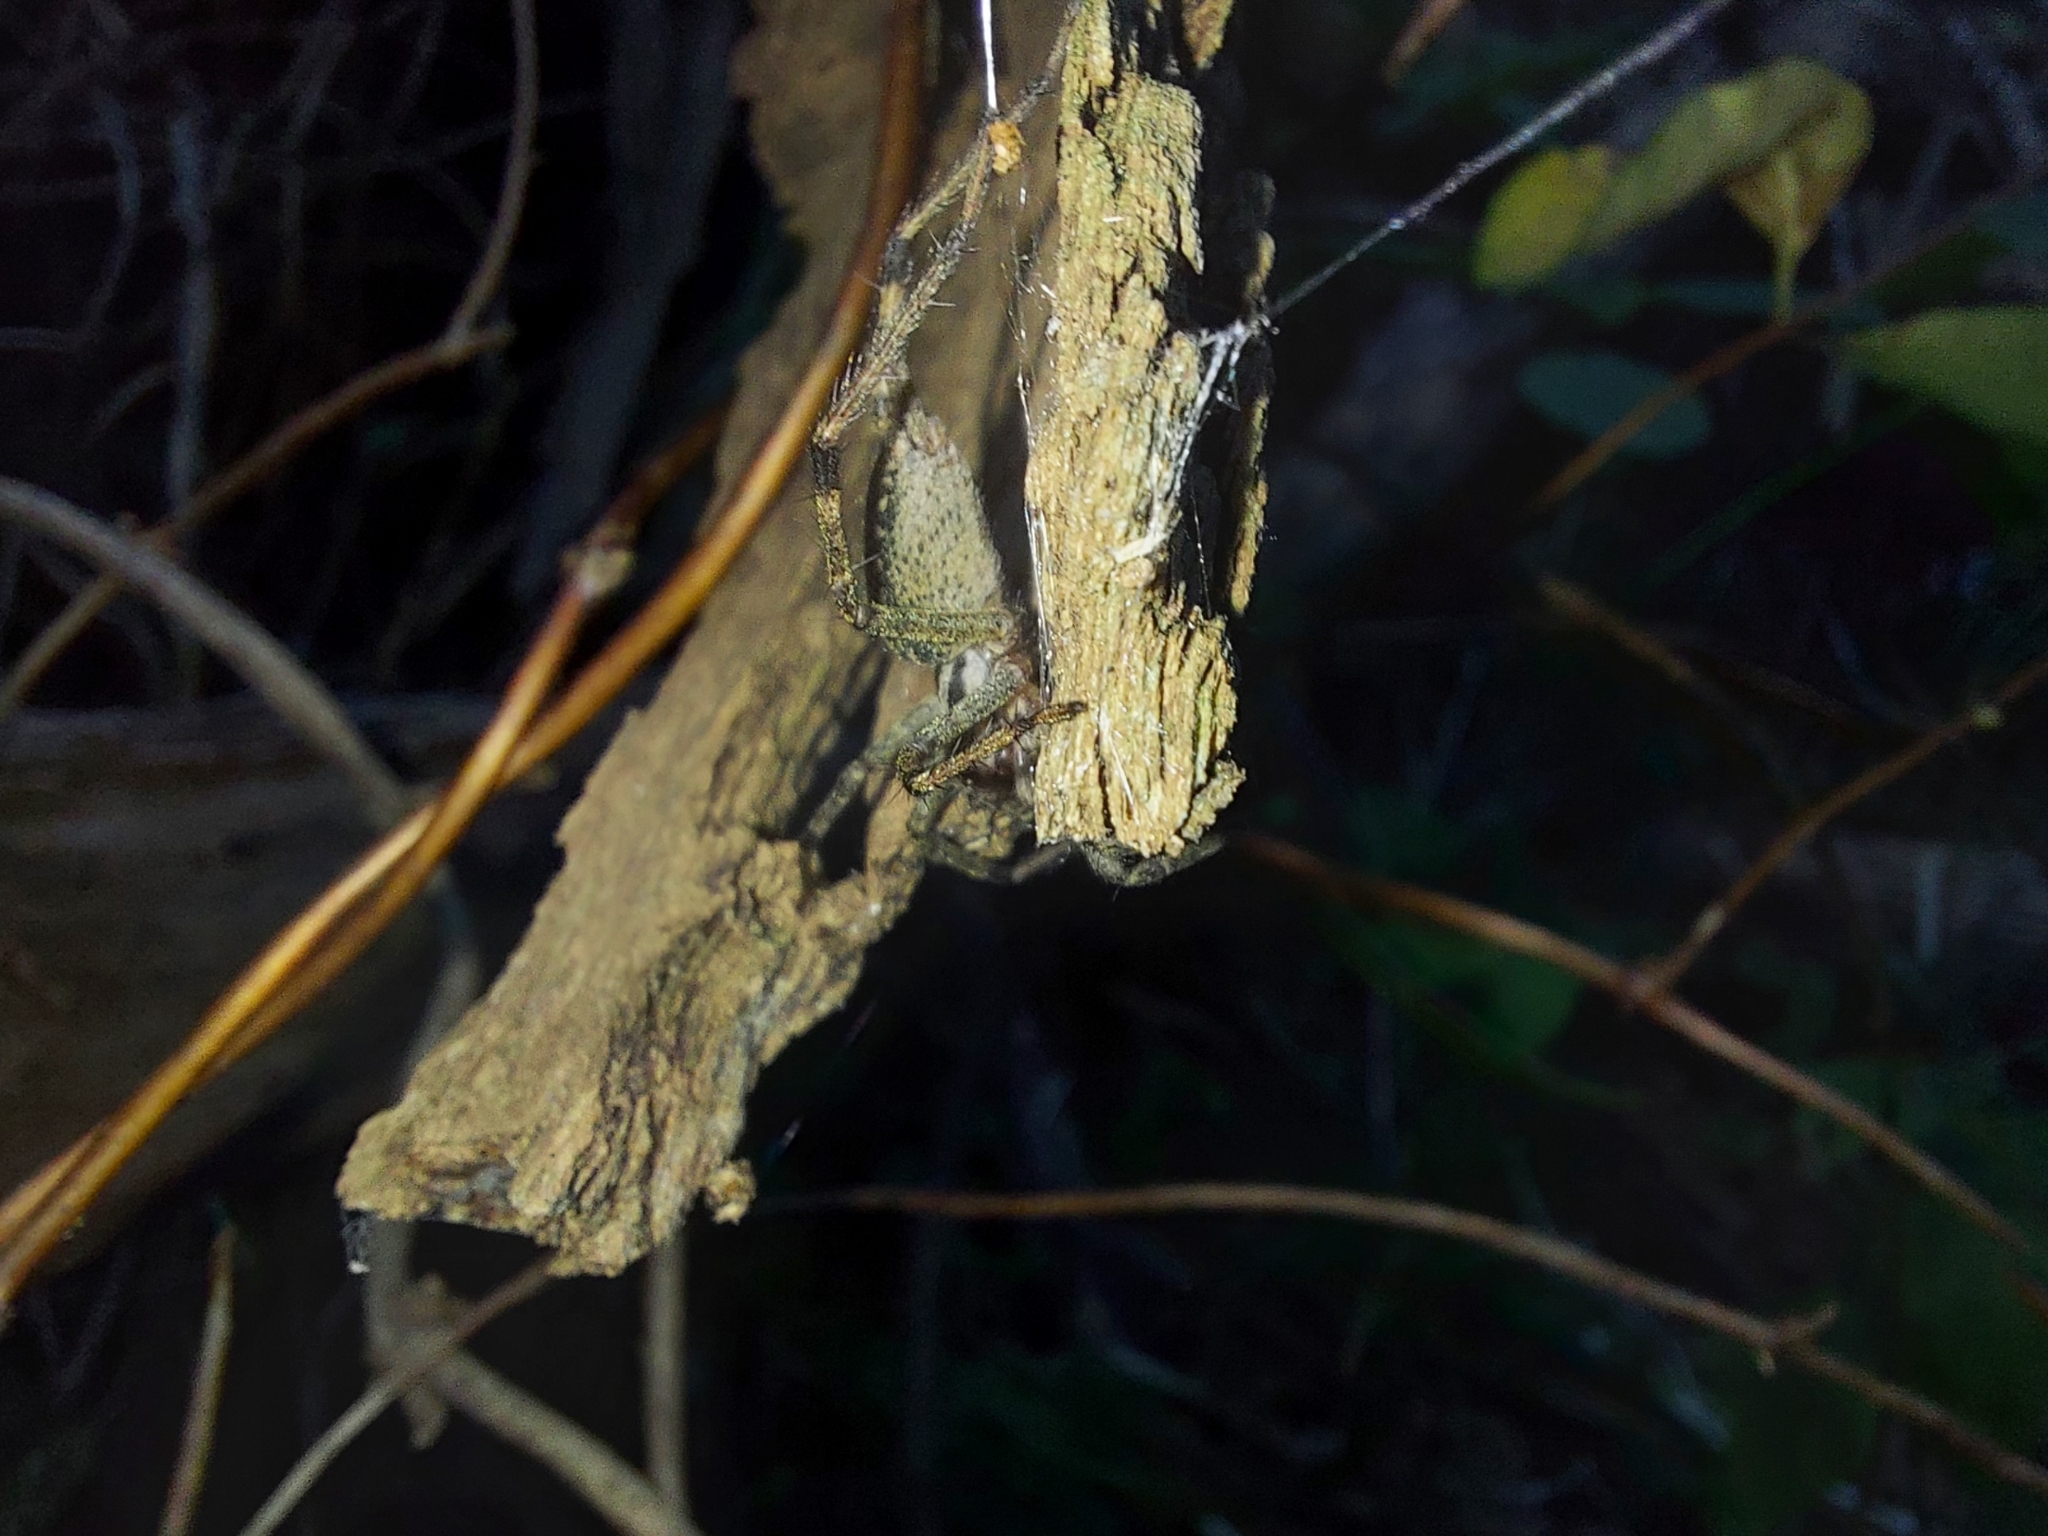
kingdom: Animalia
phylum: Arthropoda
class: Arachnida
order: Araneae
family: Agelenidae
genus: Agelenopsis
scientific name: Agelenopsis
